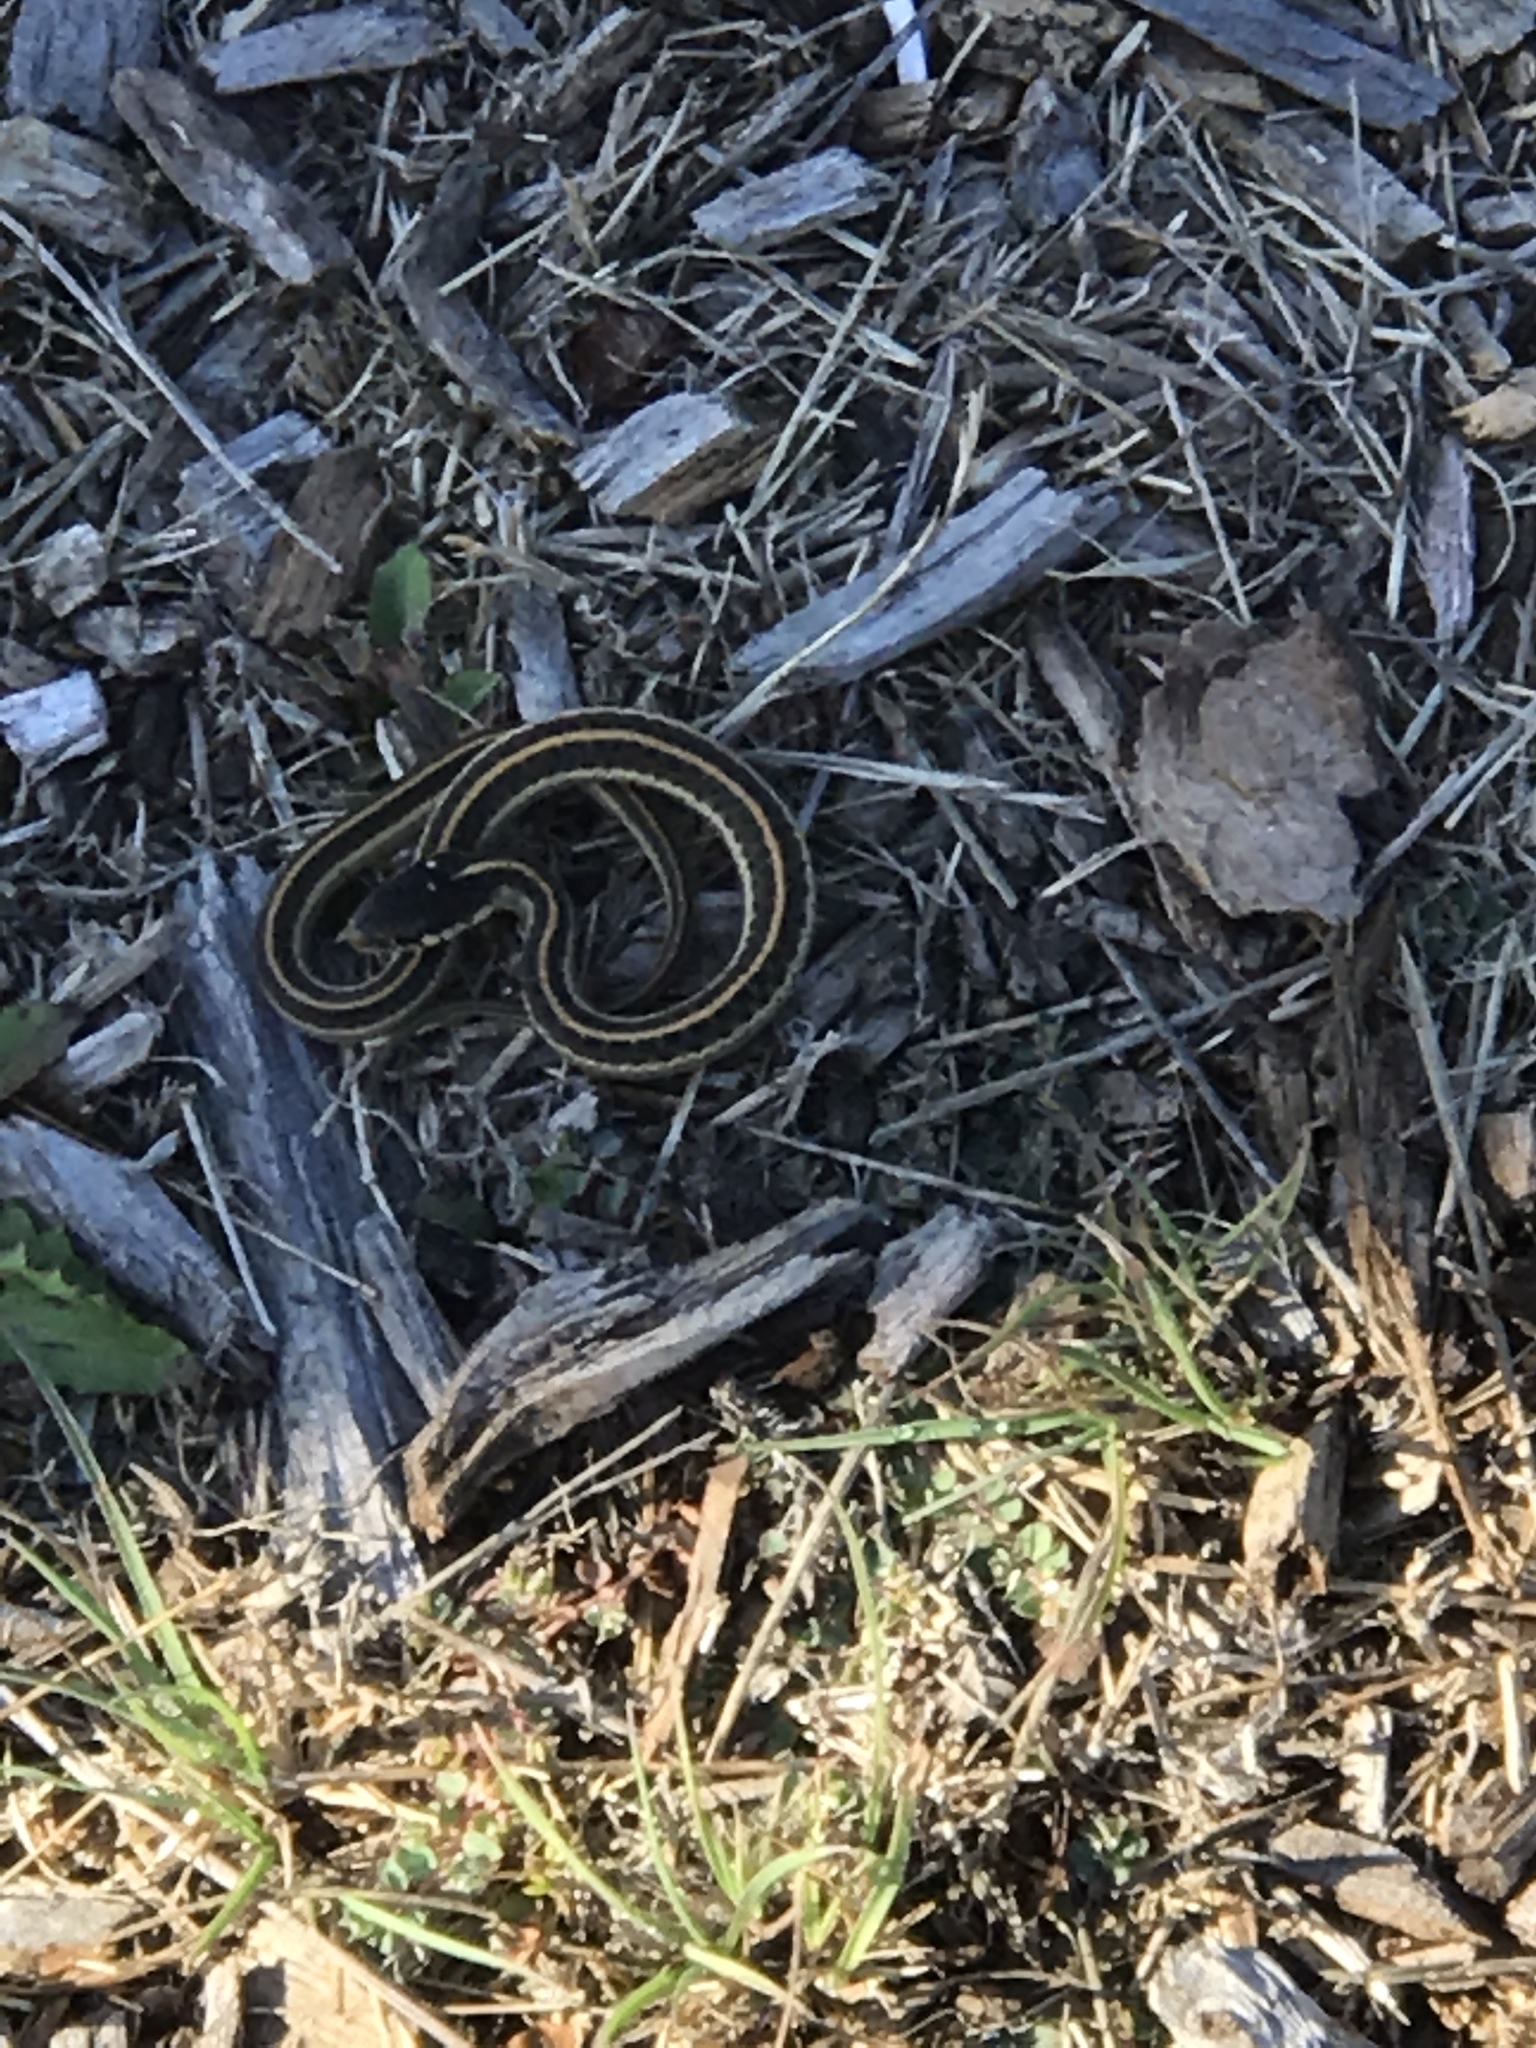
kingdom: Animalia
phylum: Chordata
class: Squamata
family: Colubridae
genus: Thamnophis
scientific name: Thamnophis elegans
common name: Western terrestrial garter snake
